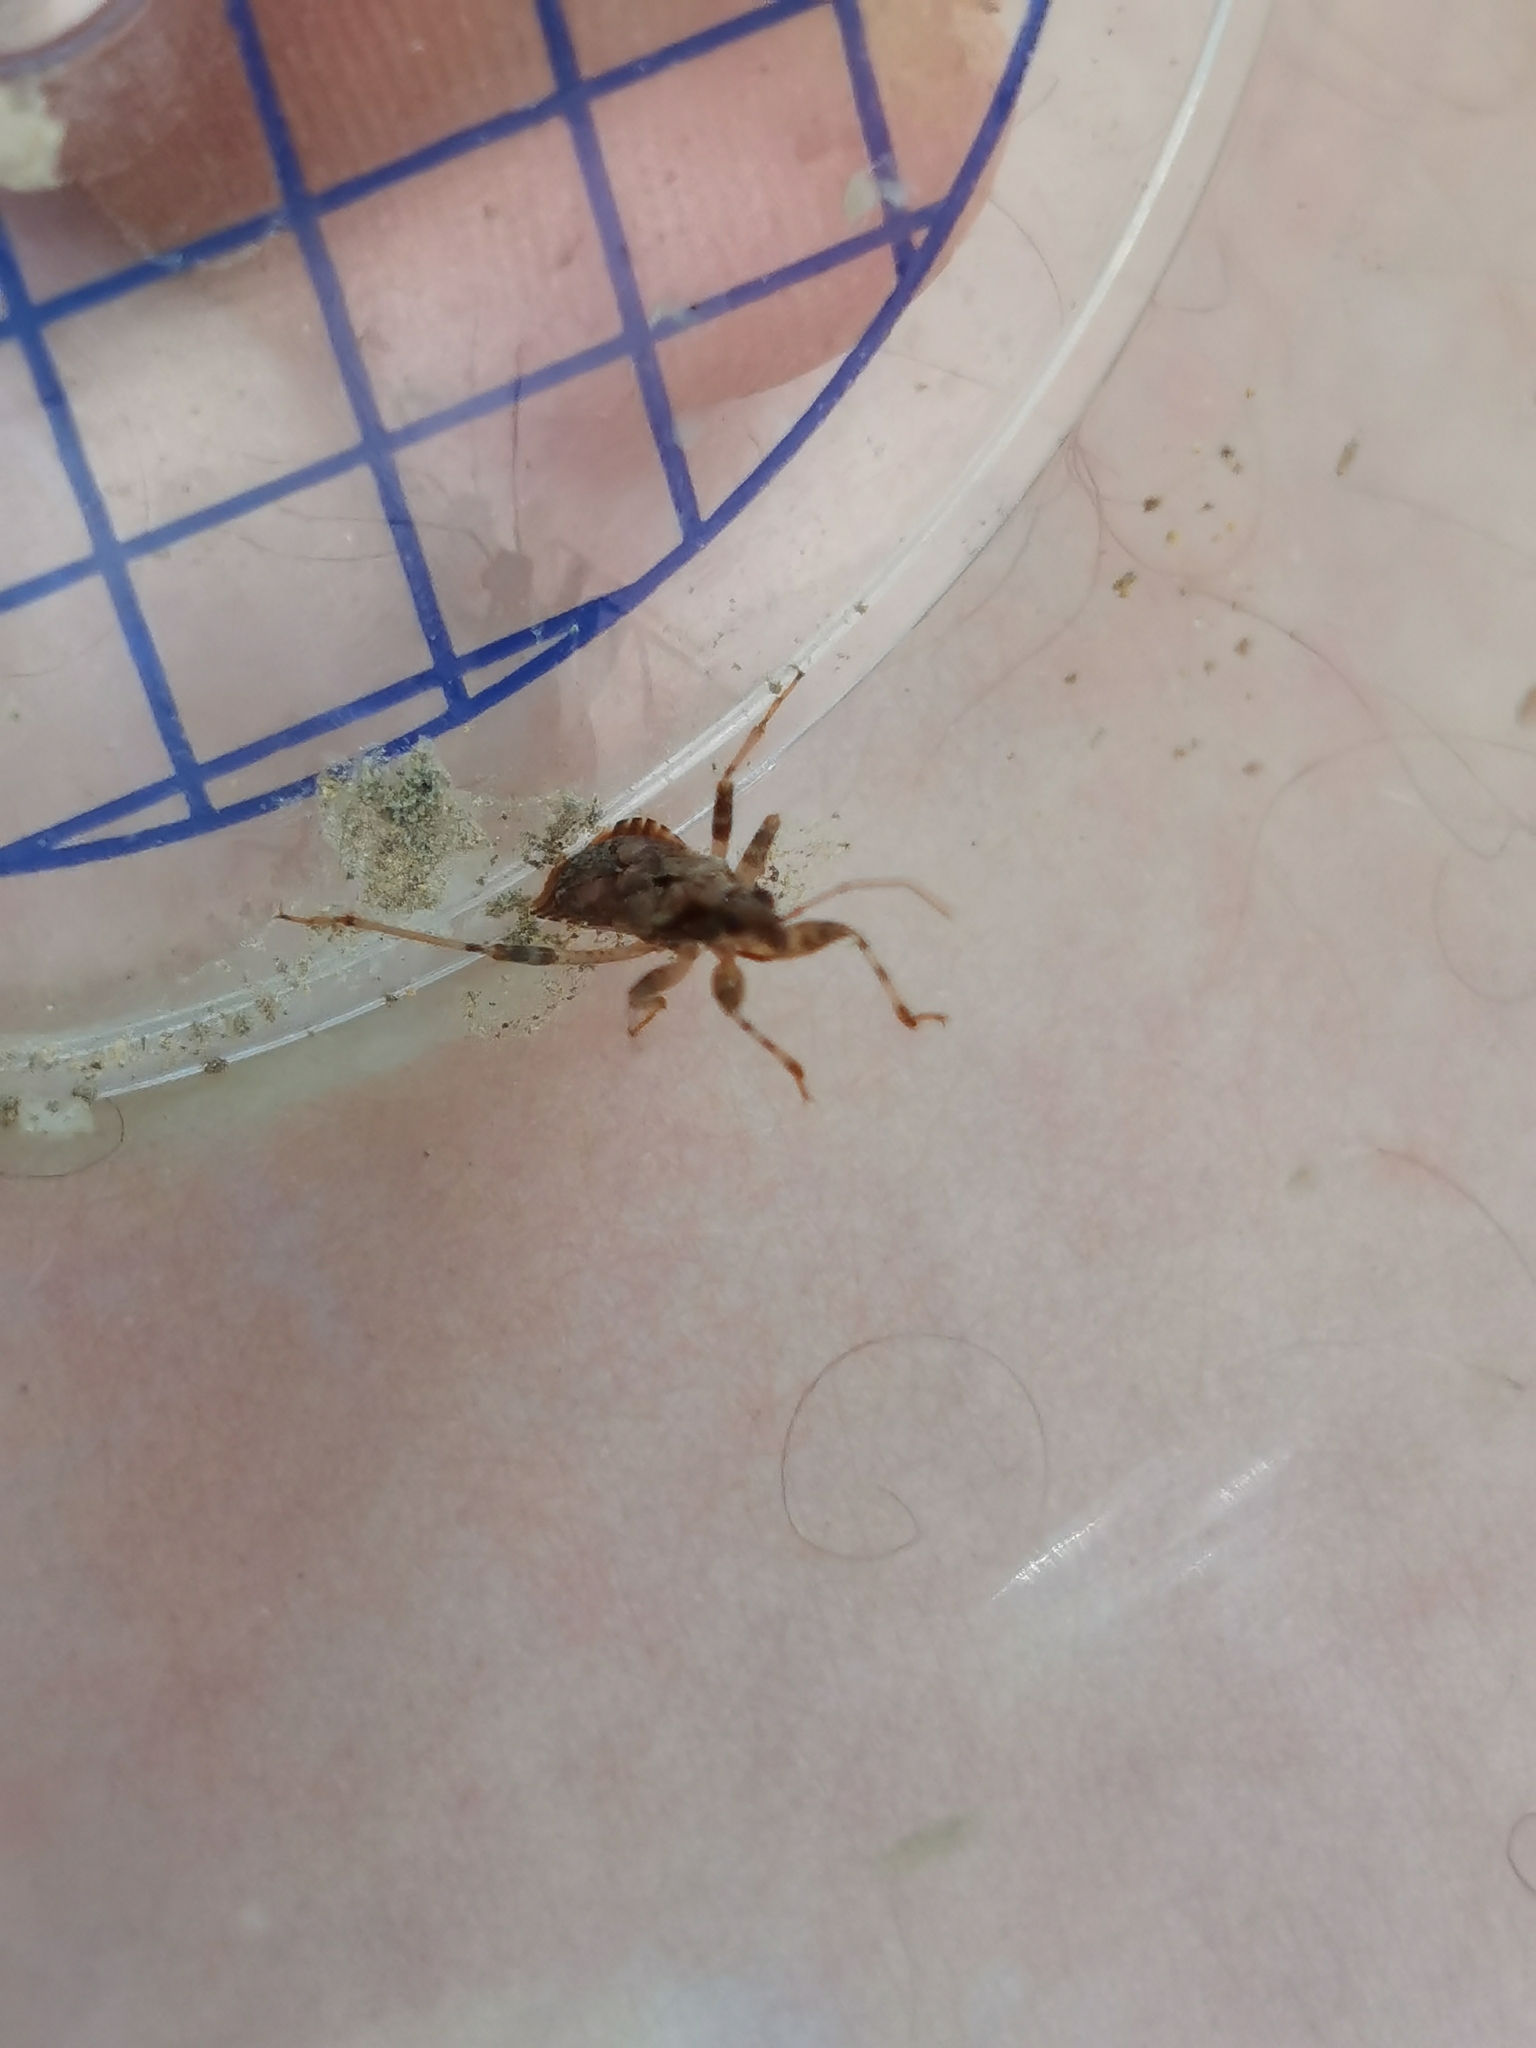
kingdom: Animalia
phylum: Arthropoda
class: Insecta
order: Hemiptera
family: Nabidae
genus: Himacerus
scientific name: Himacerus mirmicoides
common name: Ant damsel bug
